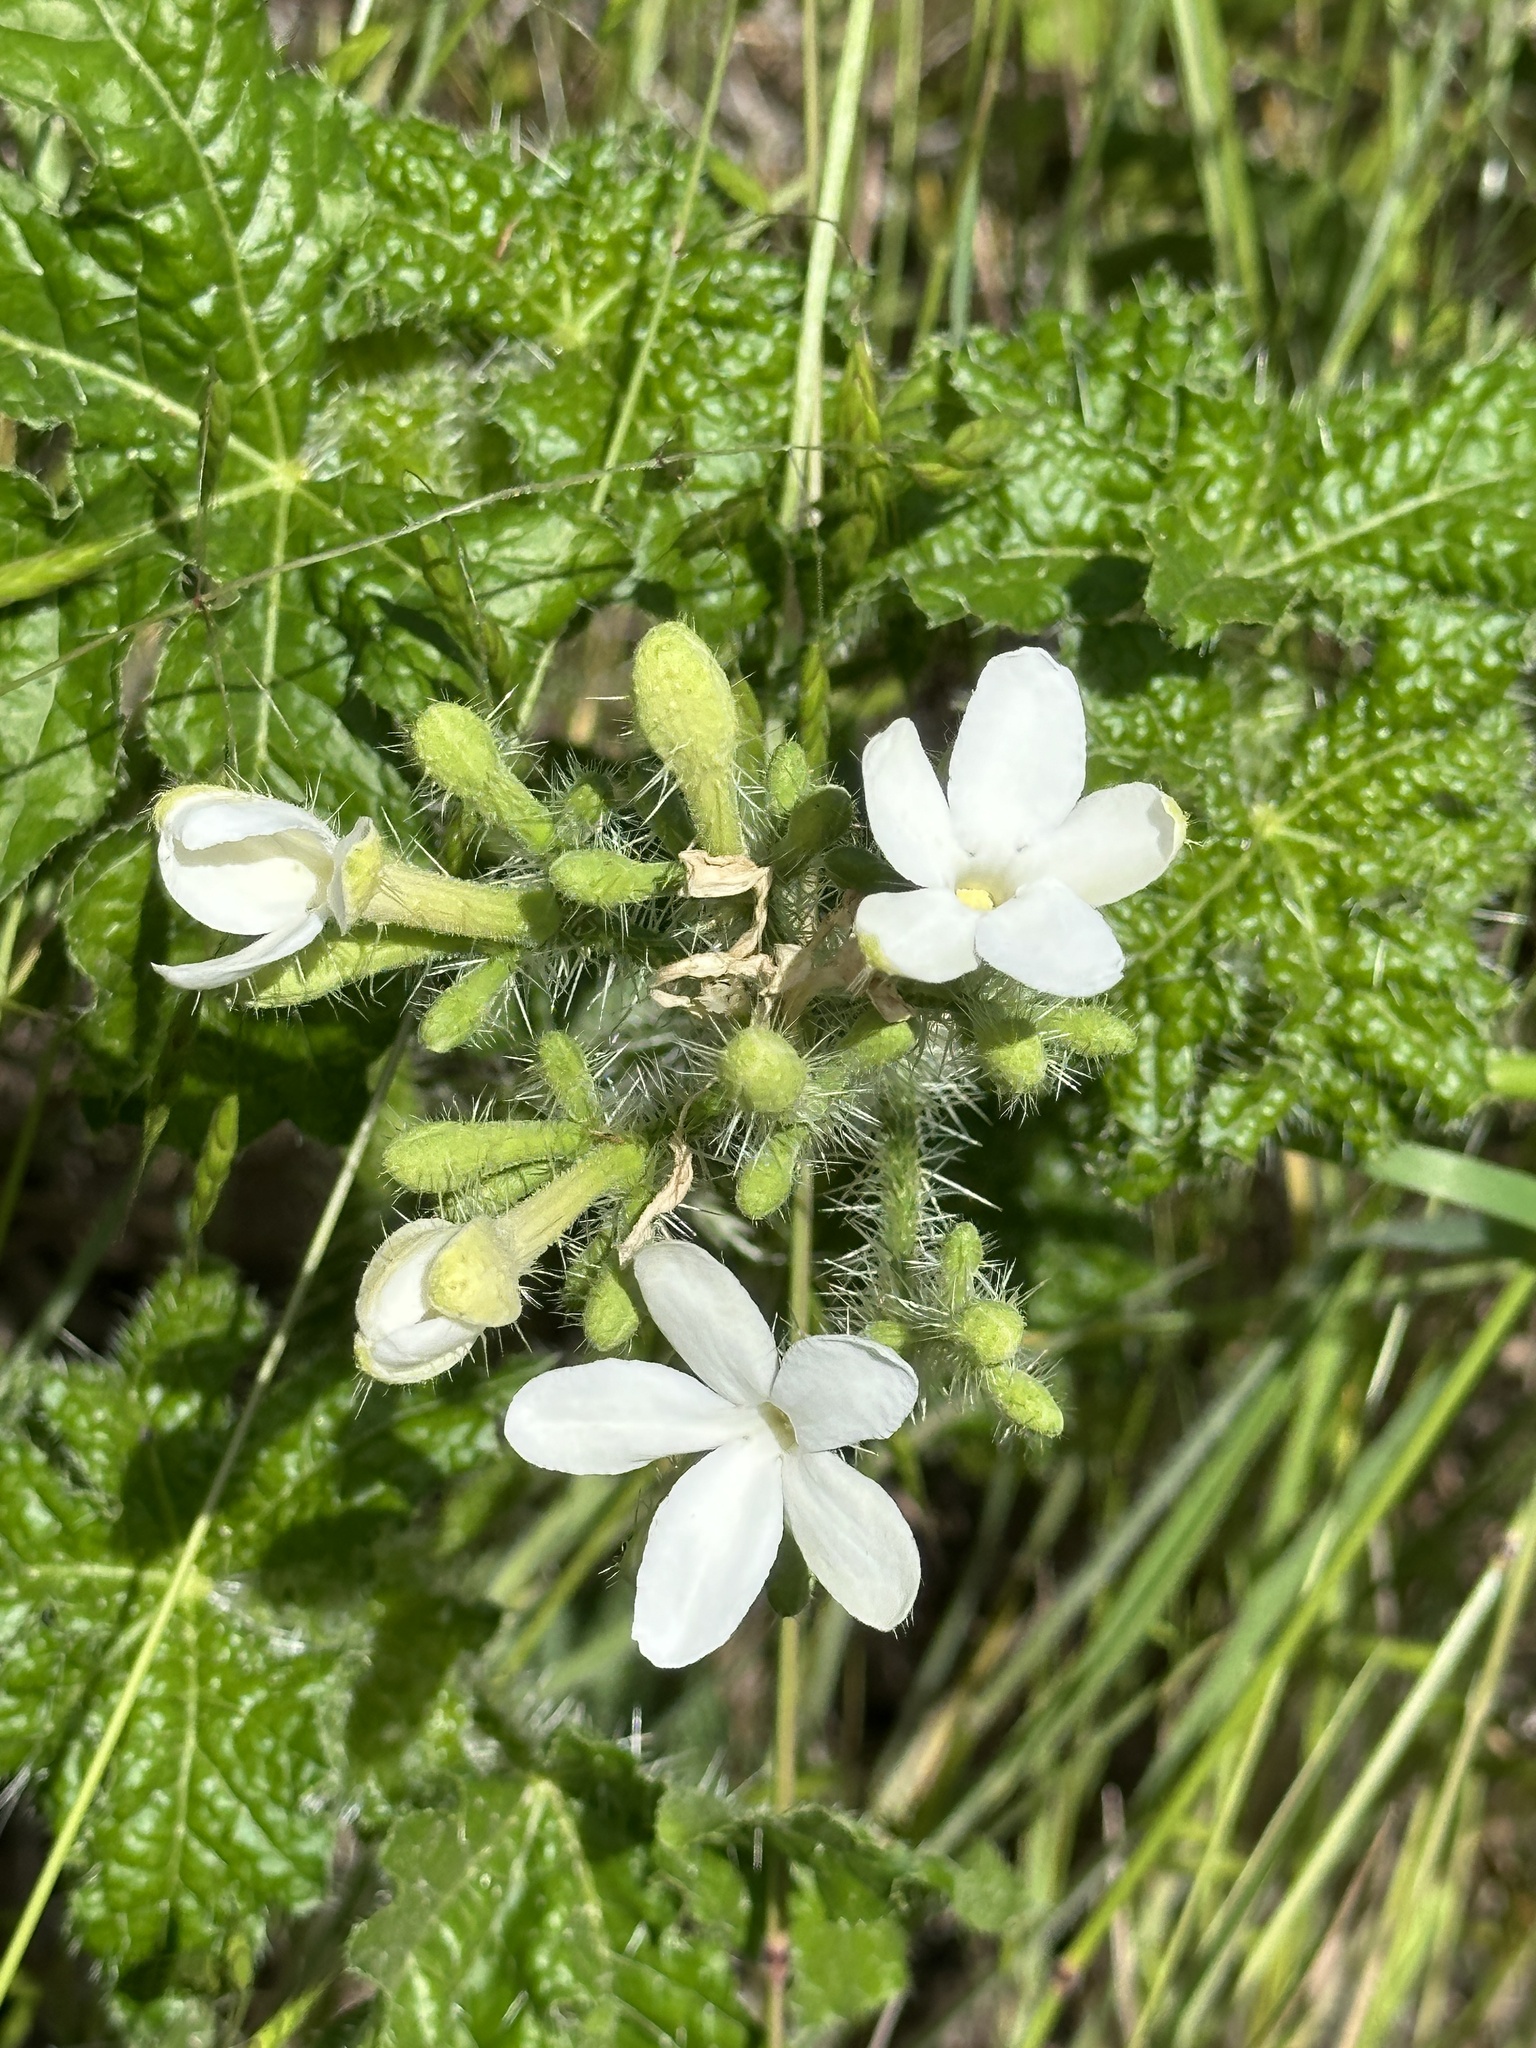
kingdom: Plantae
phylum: Tracheophyta
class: Magnoliopsida
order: Malpighiales
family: Euphorbiaceae
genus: Cnidoscolus
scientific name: Cnidoscolus texanus
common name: Texas bull-nettle
